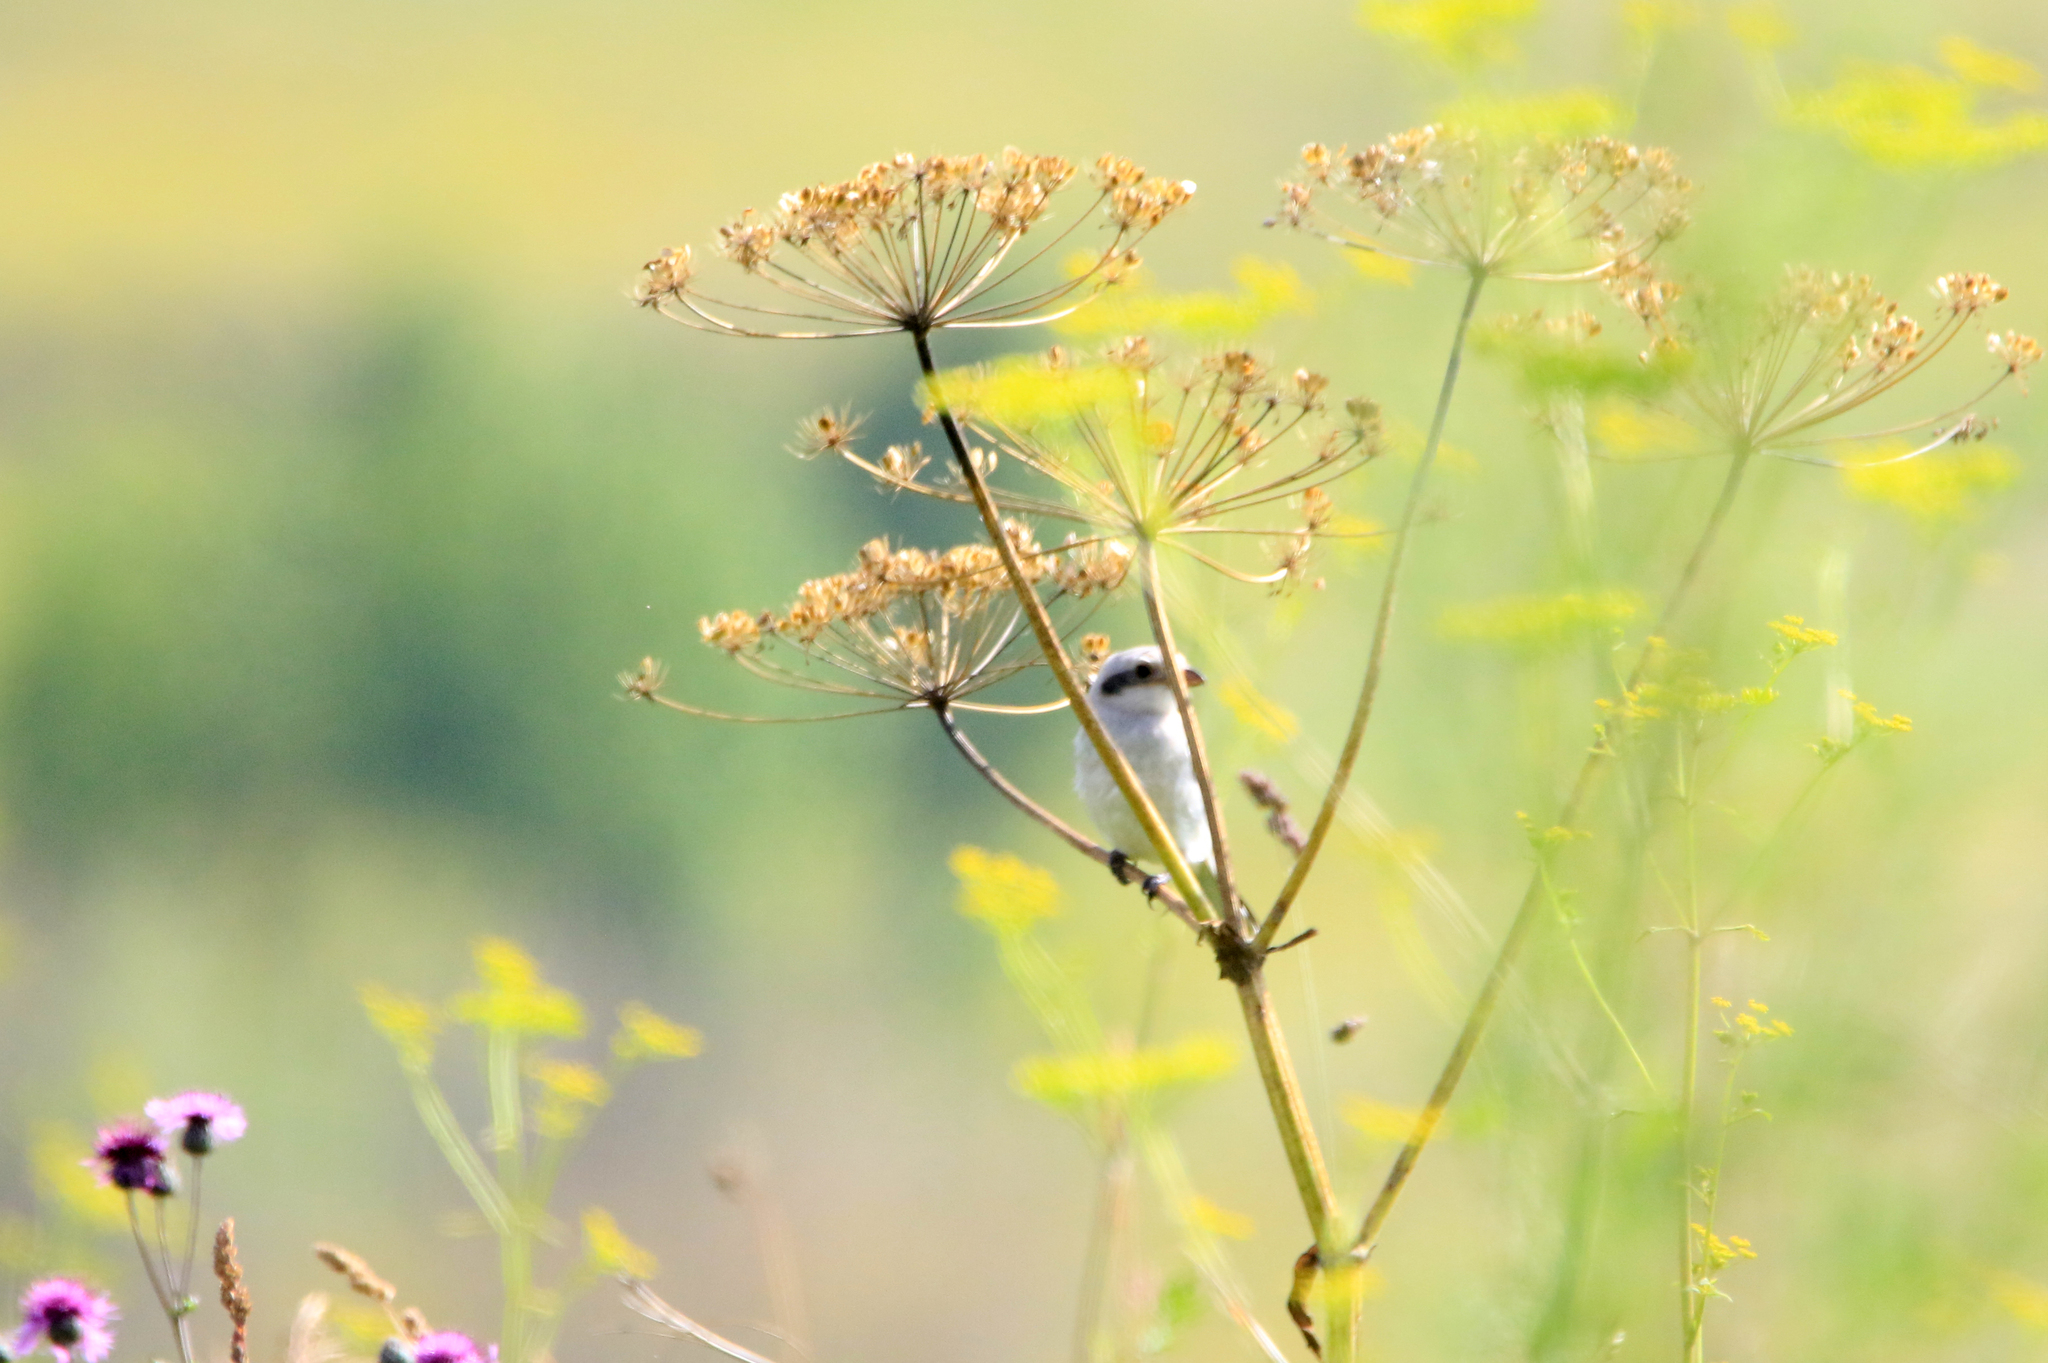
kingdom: Animalia
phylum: Chordata
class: Aves
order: Passeriformes
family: Laniidae
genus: Lanius
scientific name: Lanius excubitor
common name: Great grey shrike
